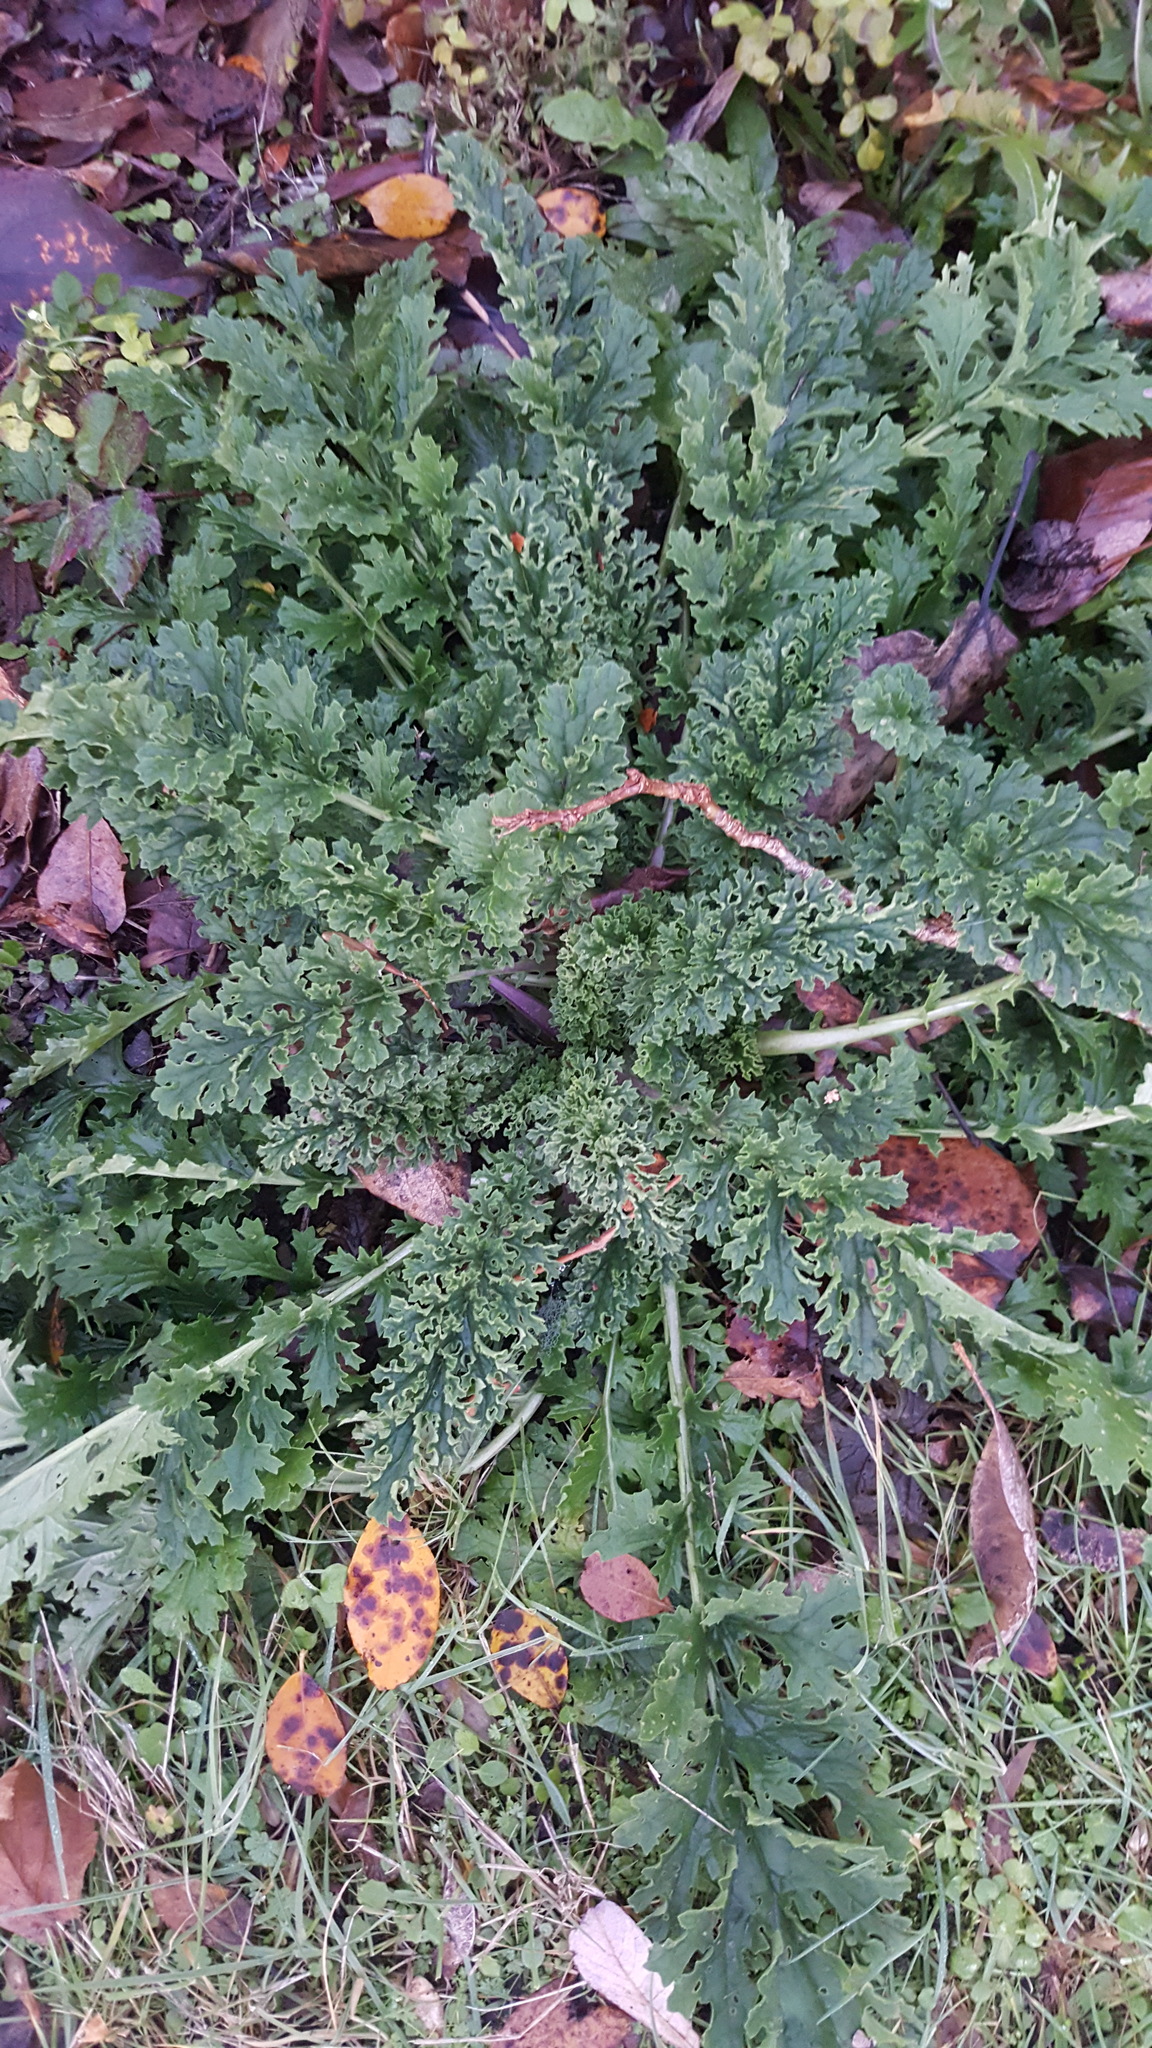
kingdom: Plantae
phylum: Tracheophyta
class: Magnoliopsida
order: Asterales
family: Asteraceae
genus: Jacobaea
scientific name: Jacobaea vulgaris
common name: Stinking willie
